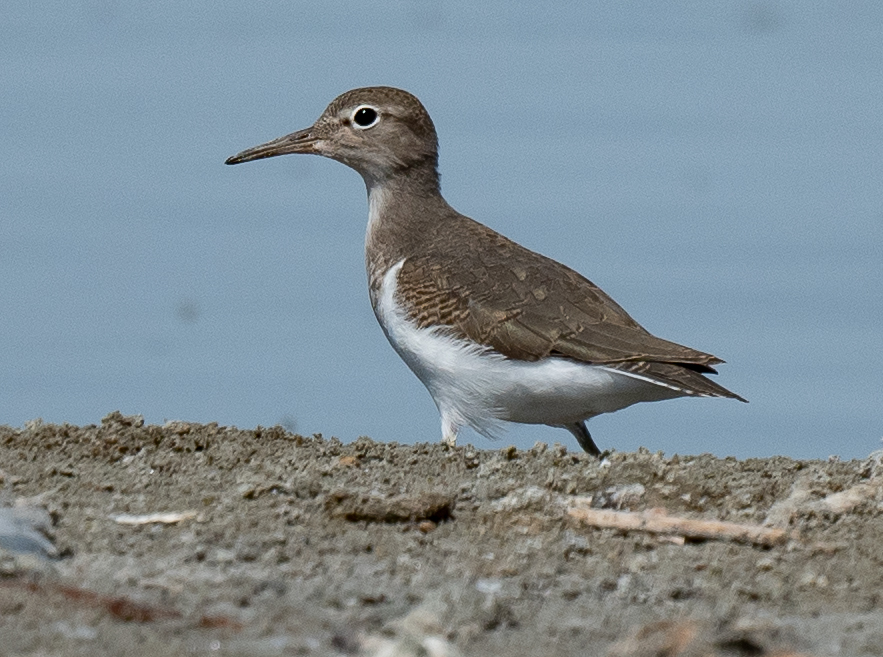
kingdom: Animalia
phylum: Chordata
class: Aves
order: Charadriiformes
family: Scolopacidae
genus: Actitis
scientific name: Actitis macularius
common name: Spotted sandpiper
